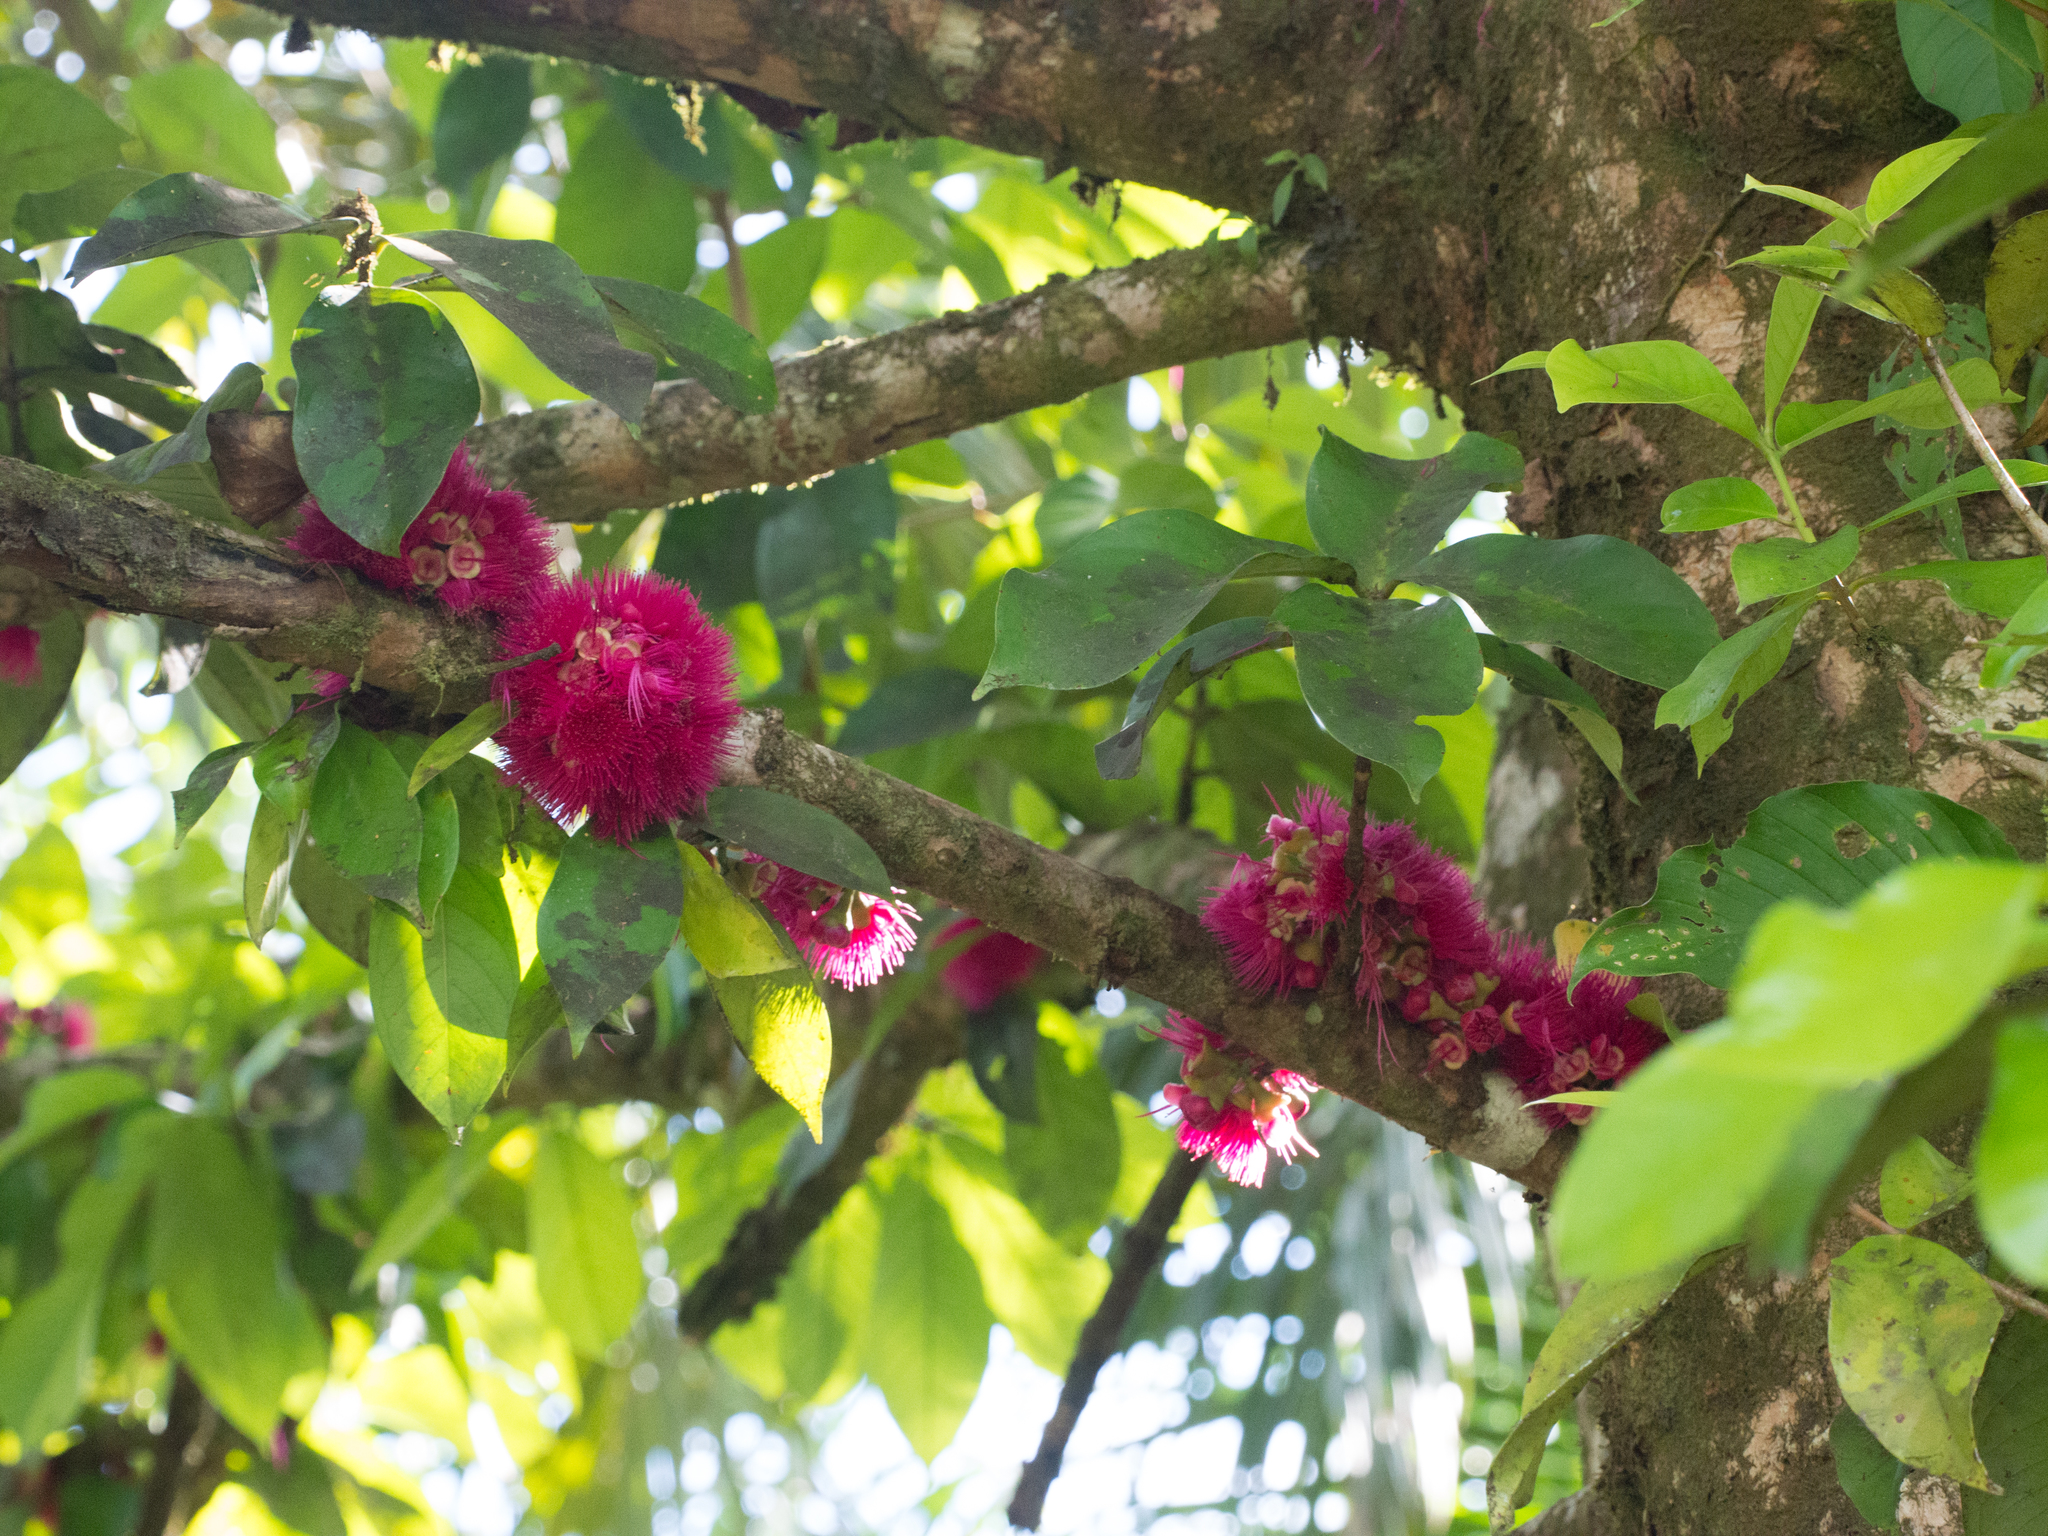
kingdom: Plantae
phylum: Tracheophyta
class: Magnoliopsida
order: Myrtales
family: Myrtaceae
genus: Syzygium
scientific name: Syzygium malaccense
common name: Malaysian apple
